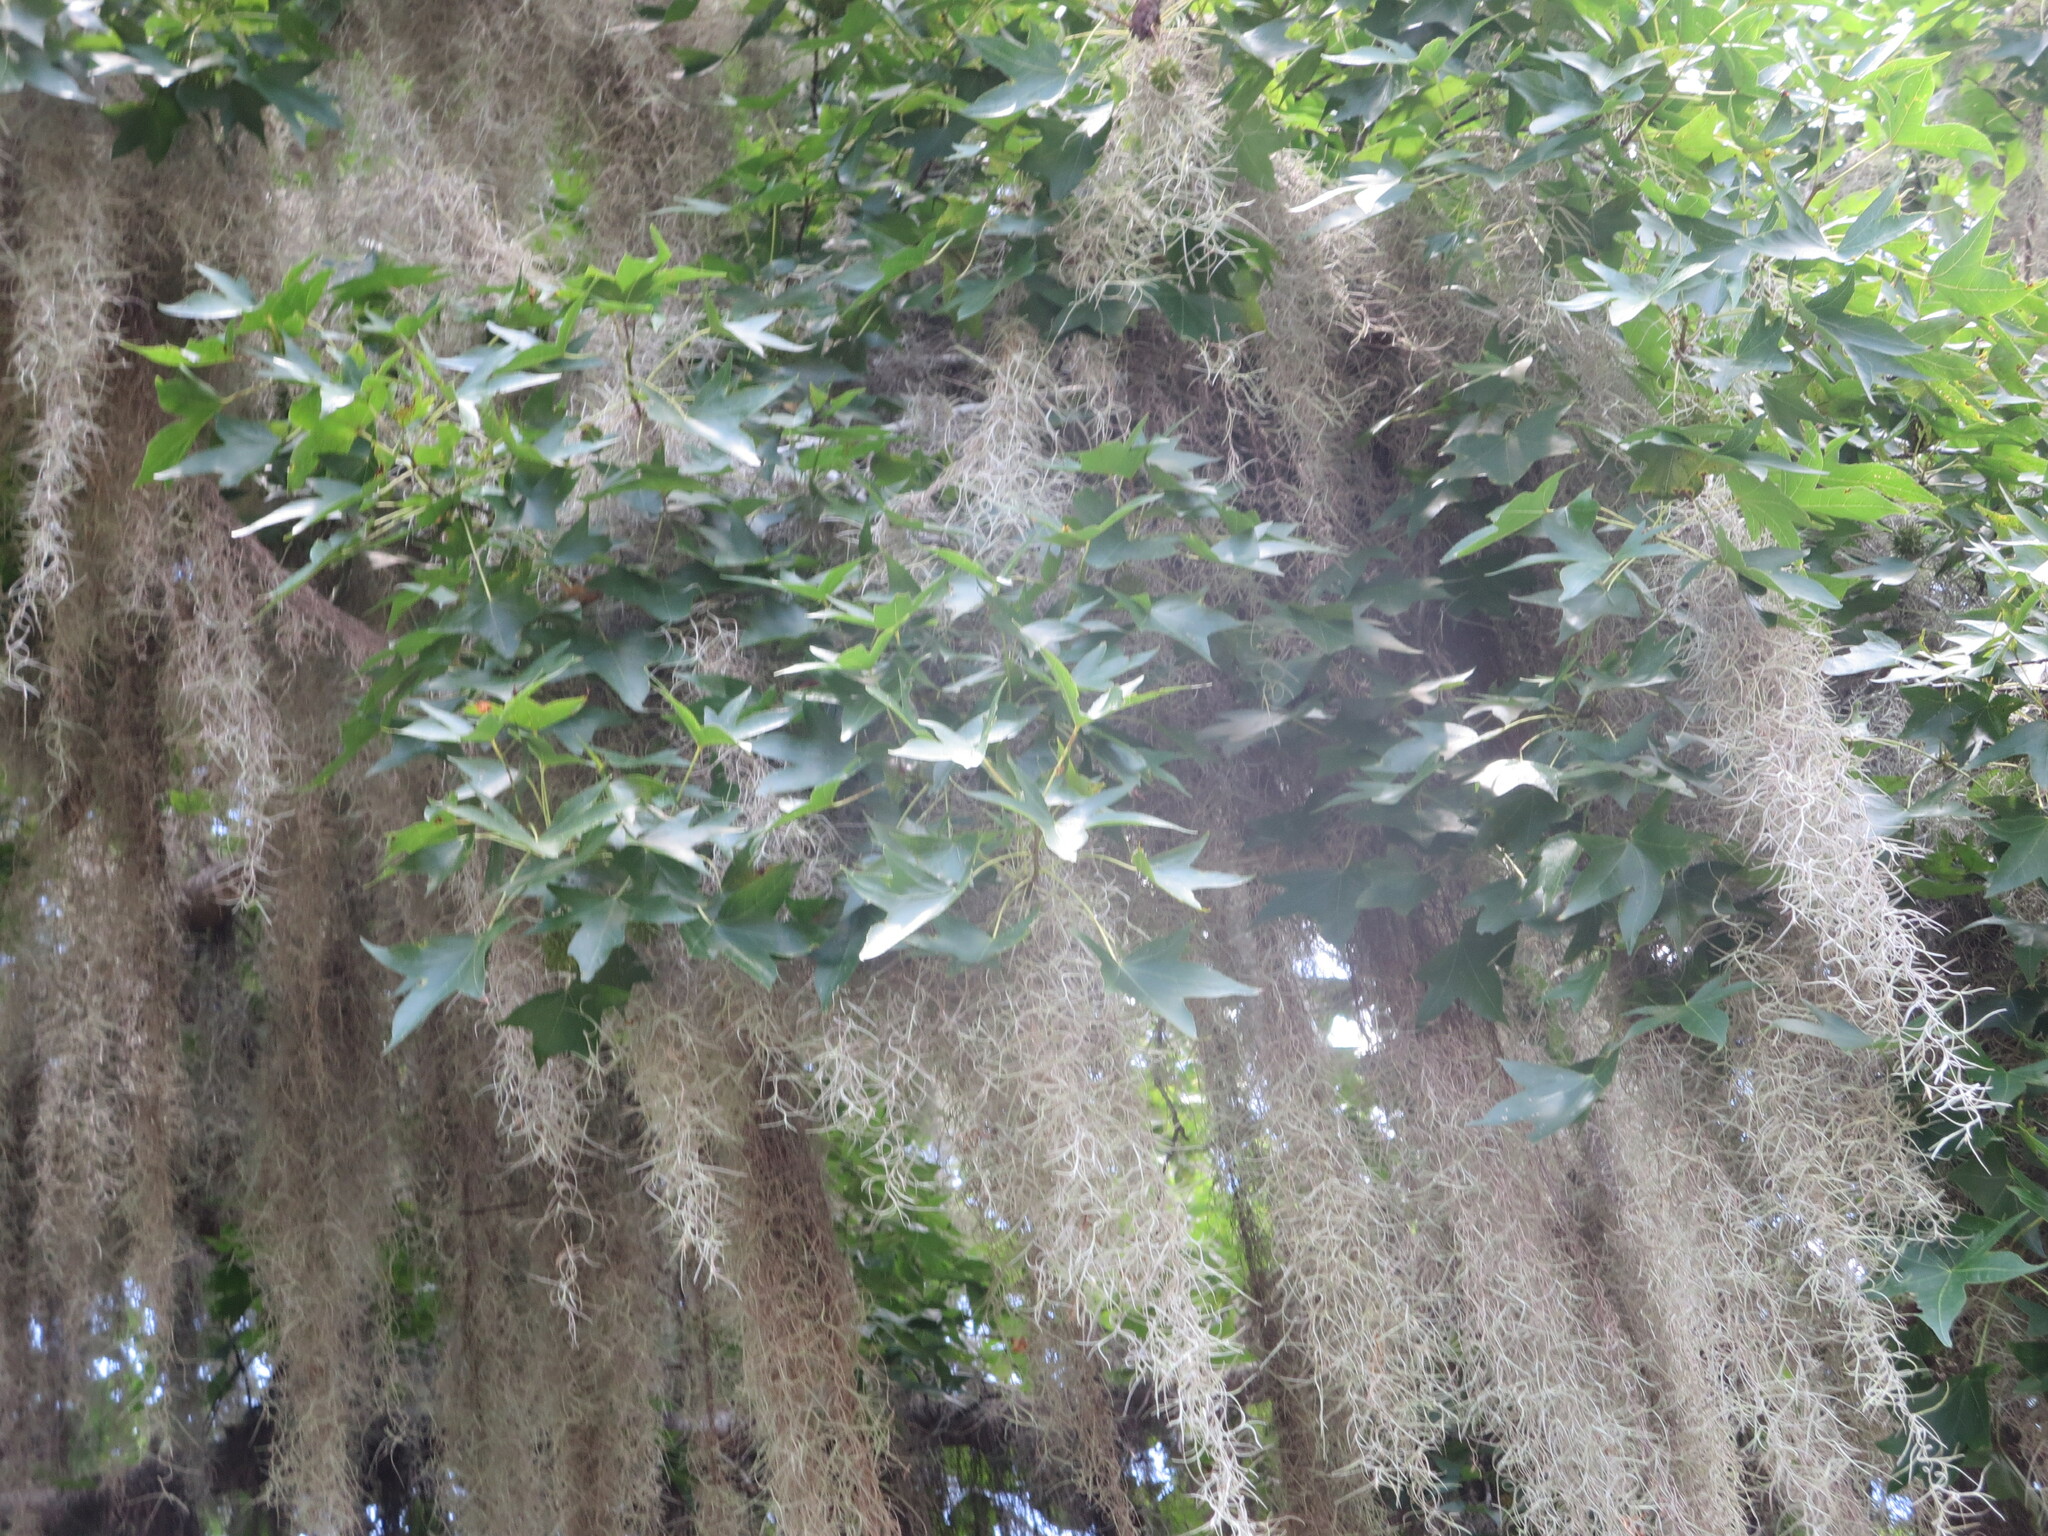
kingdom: Plantae
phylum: Tracheophyta
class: Liliopsida
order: Poales
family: Bromeliaceae
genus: Tillandsia
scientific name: Tillandsia usneoides
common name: Spanish moss
